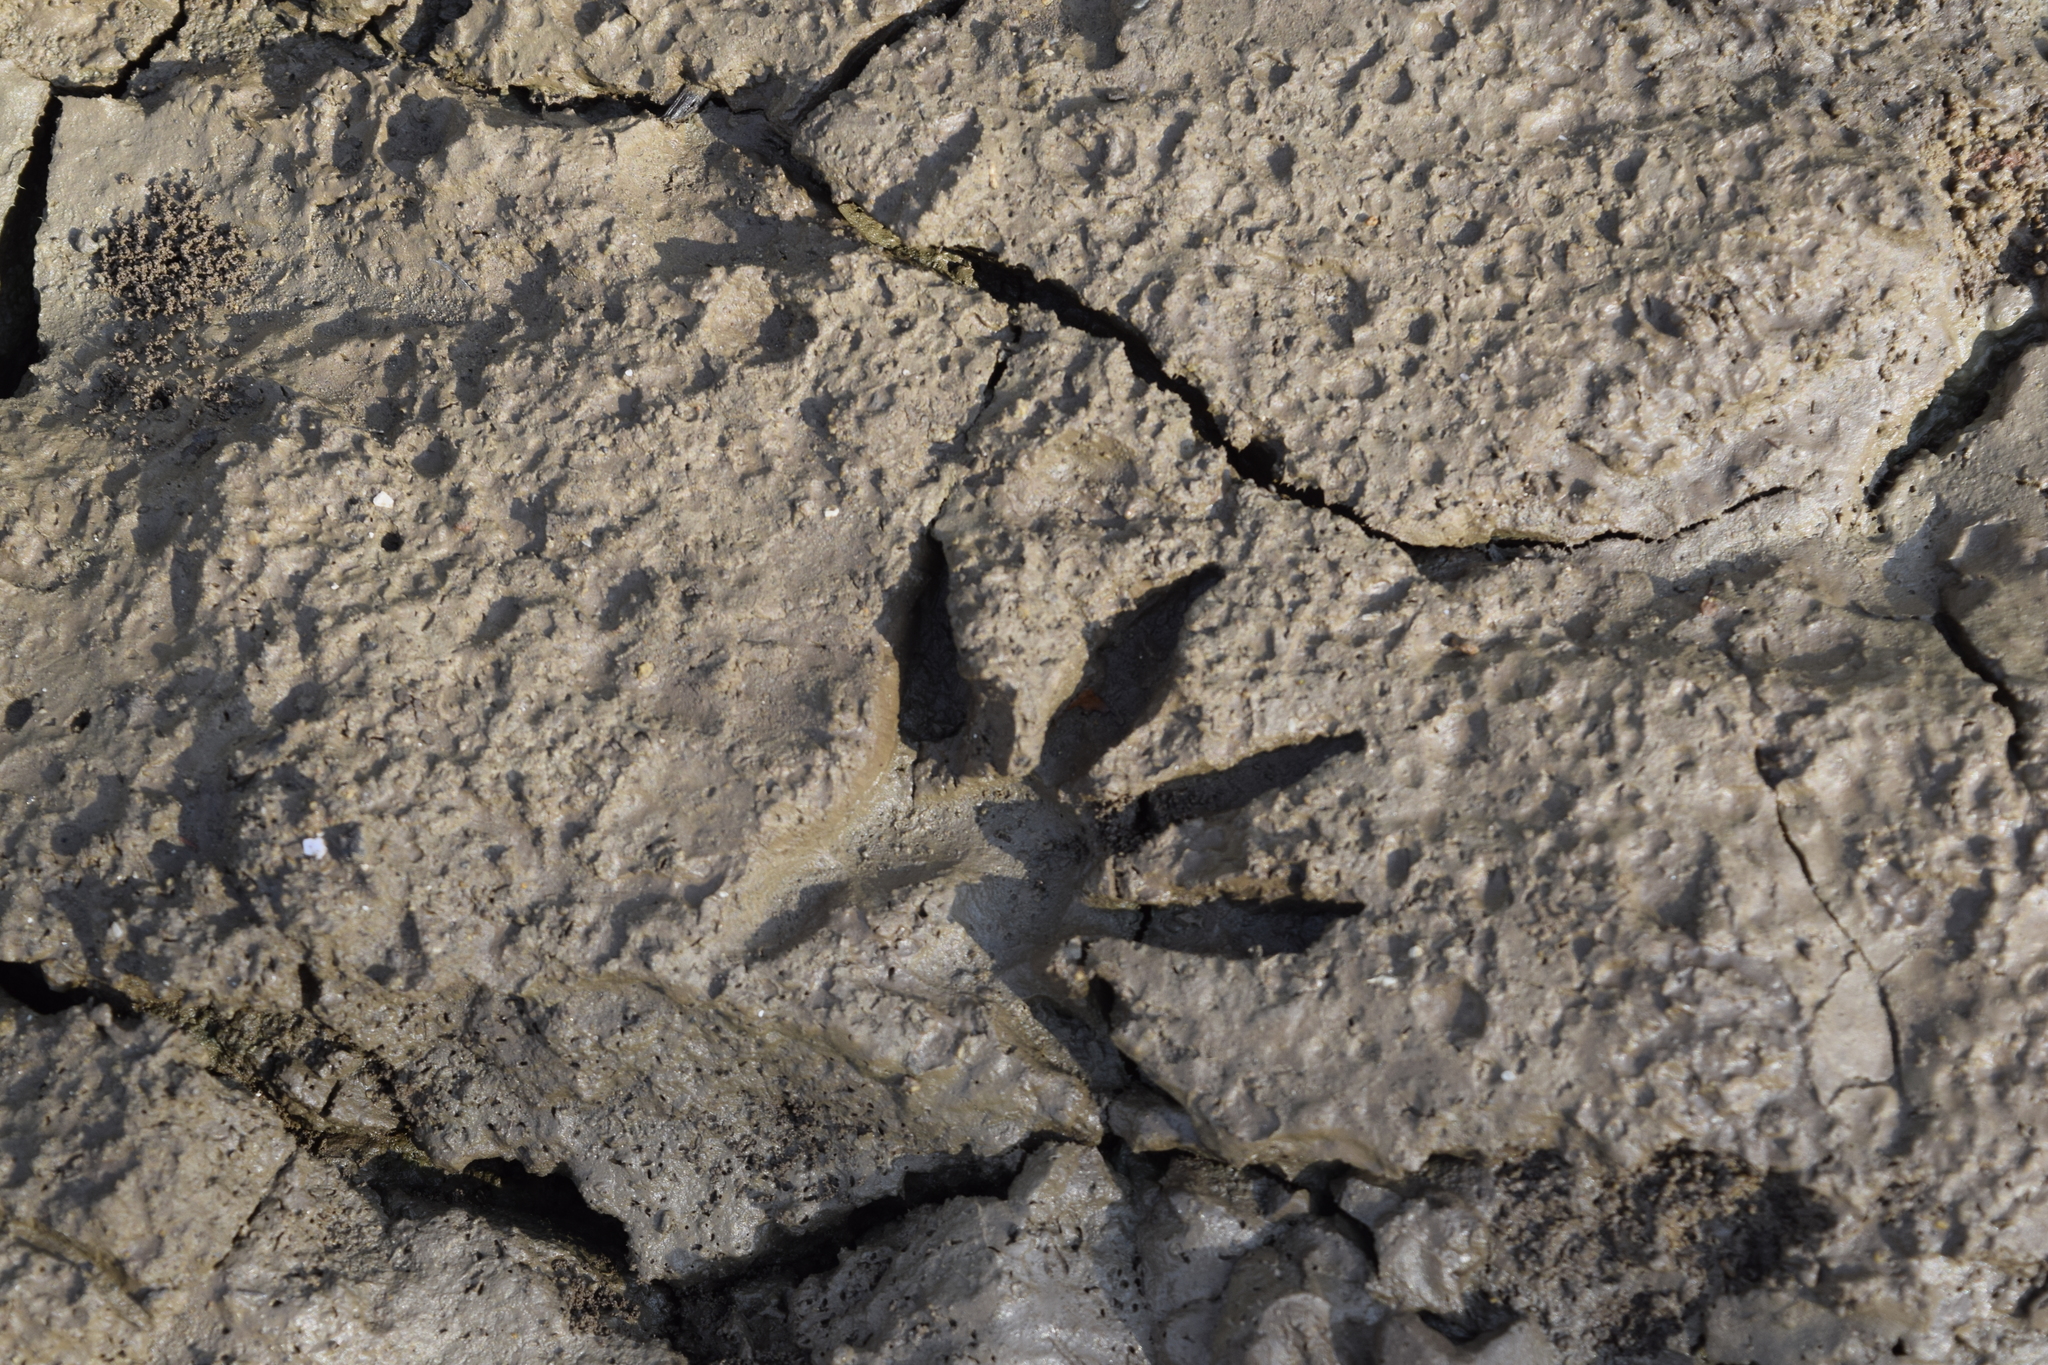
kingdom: Animalia
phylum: Chordata
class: Mammalia
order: Carnivora
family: Procyonidae
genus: Procyon
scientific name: Procyon lotor
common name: Raccoon
